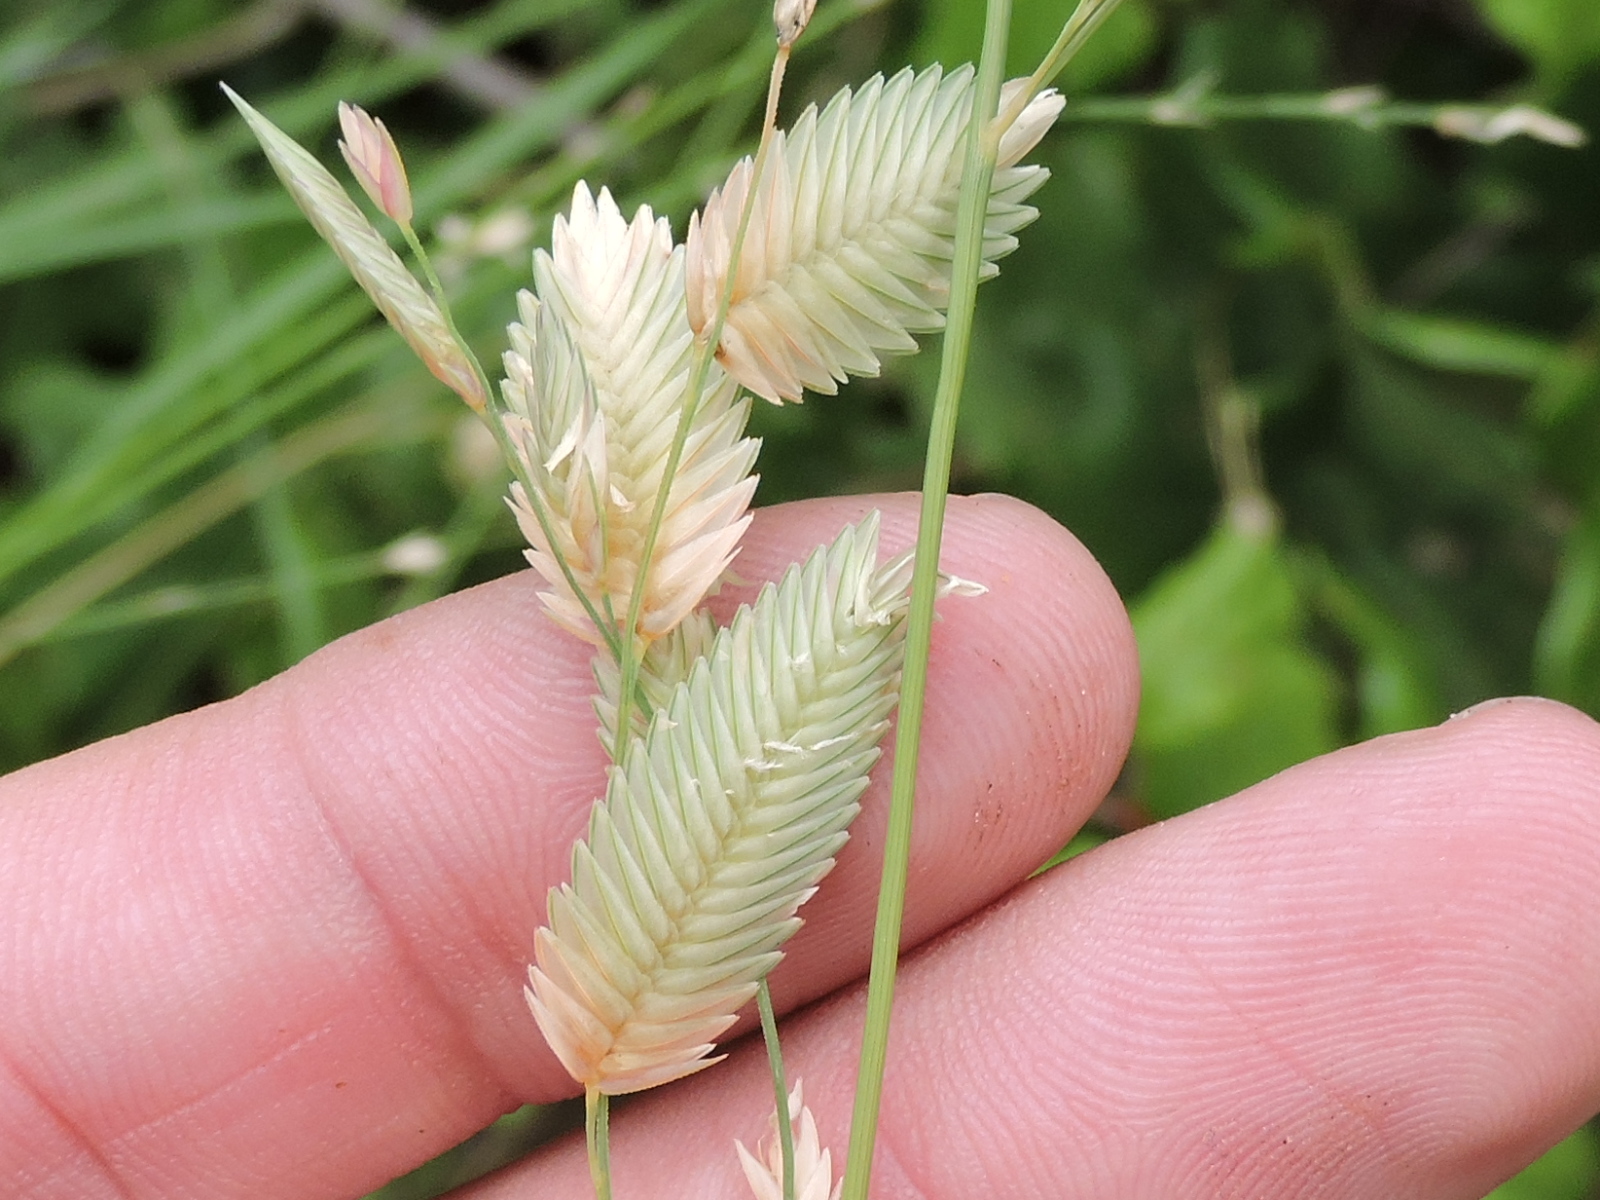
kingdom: Plantae
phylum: Tracheophyta
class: Liliopsida
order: Poales
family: Poaceae
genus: Eragrostis
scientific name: Eragrostis superba
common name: Wilman lovegrass
